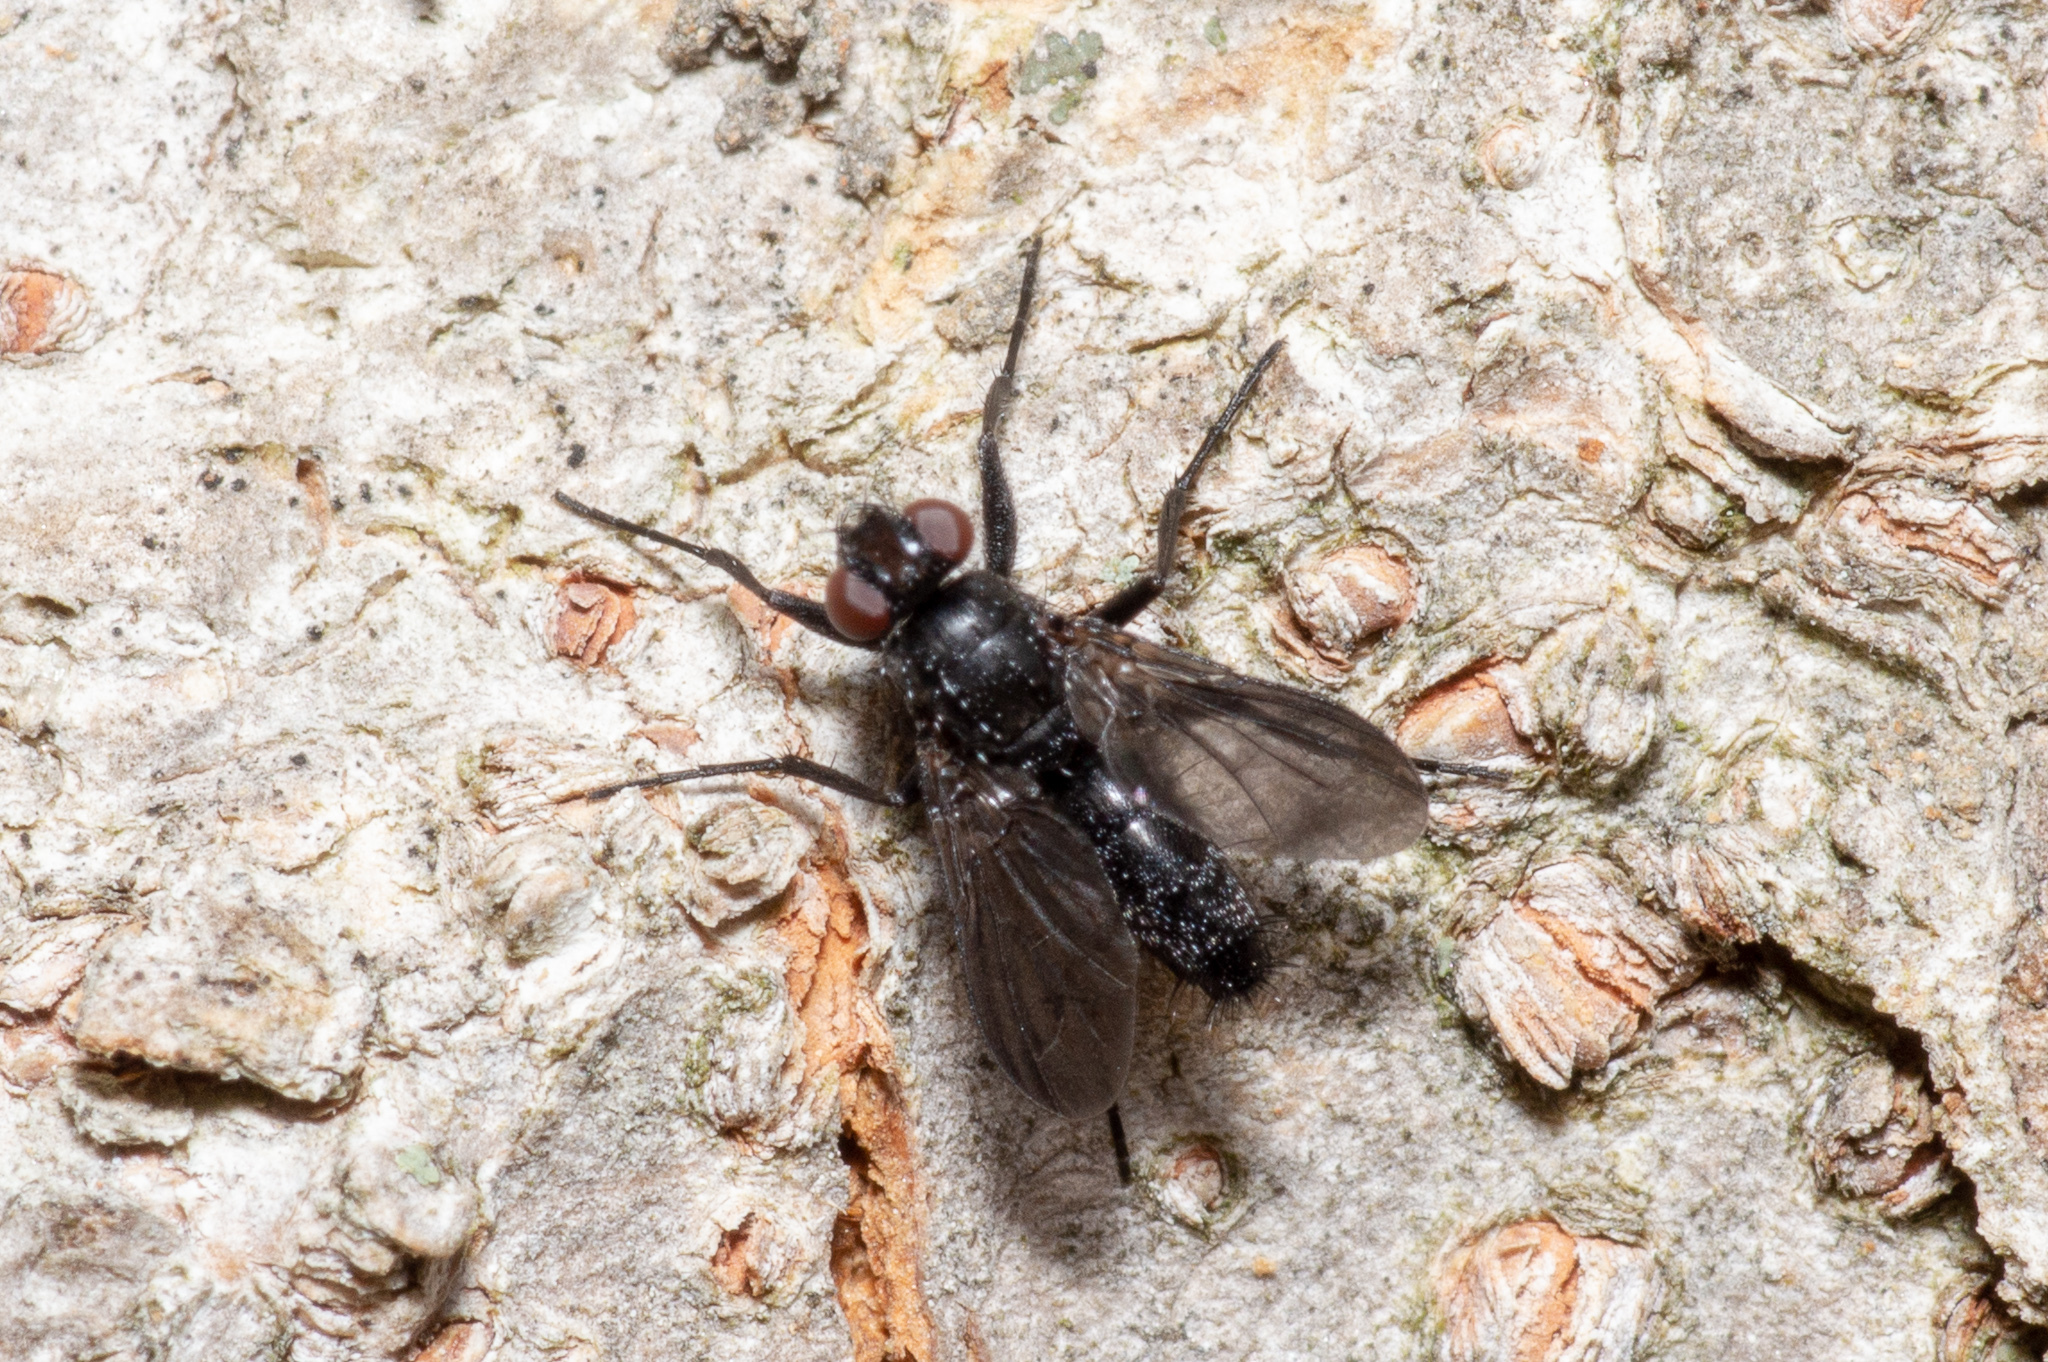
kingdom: Animalia
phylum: Arthropoda
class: Insecta
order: Diptera
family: Calliphoridae
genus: Melanophora
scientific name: Melanophora roralis
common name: Smoky-winged woodlouse-fly
